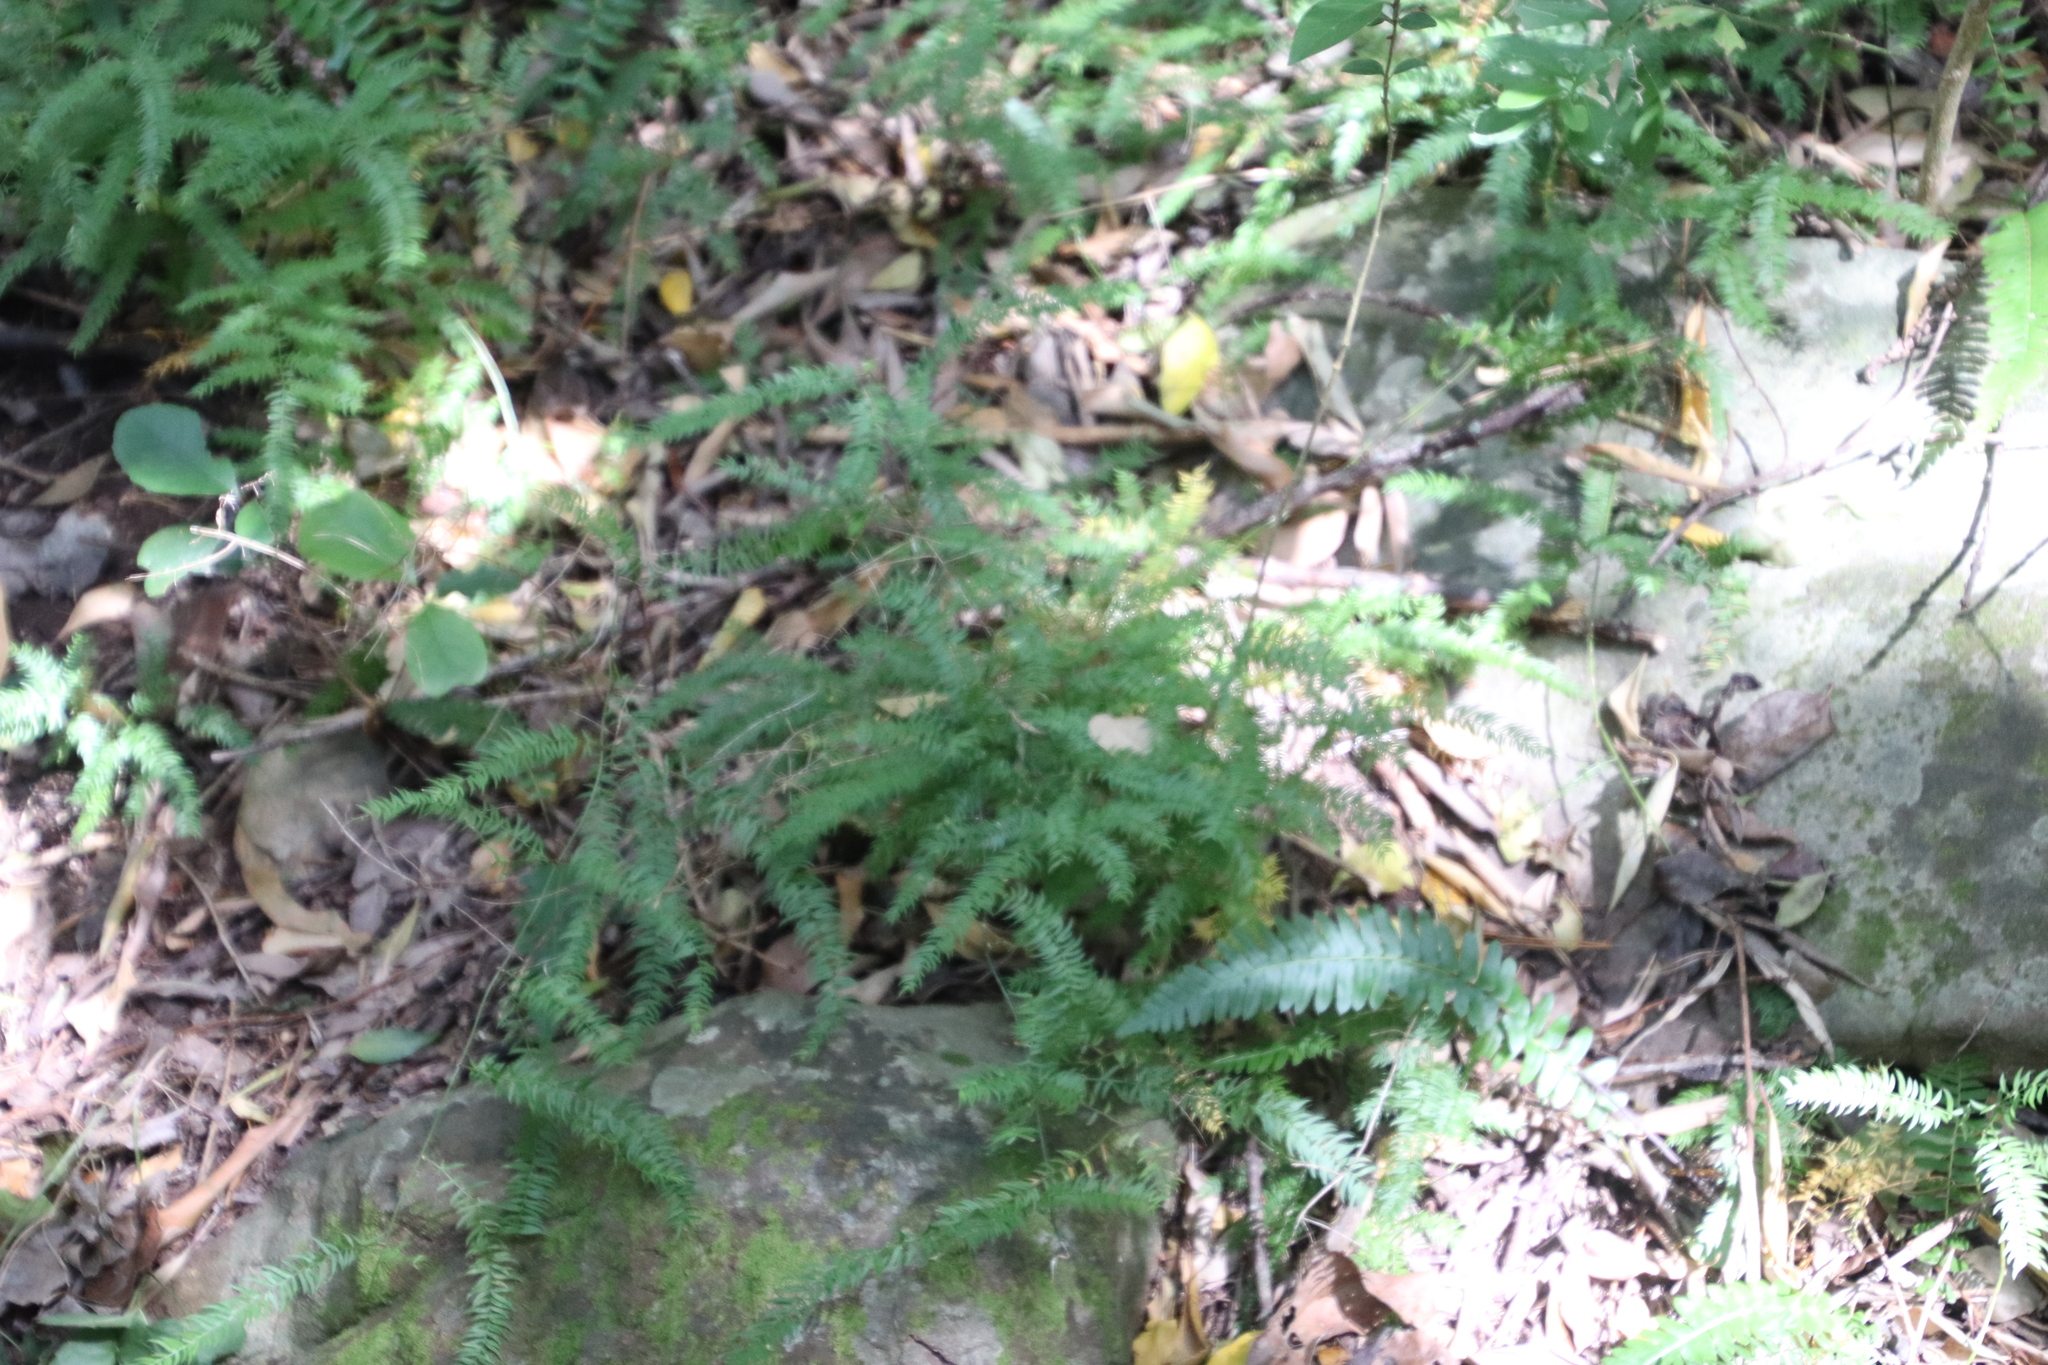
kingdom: Plantae
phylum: Tracheophyta
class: Liliopsida
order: Asparagales
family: Asparagaceae
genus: Asparagus
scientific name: Asparagus scandens
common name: Asparagus-fern
